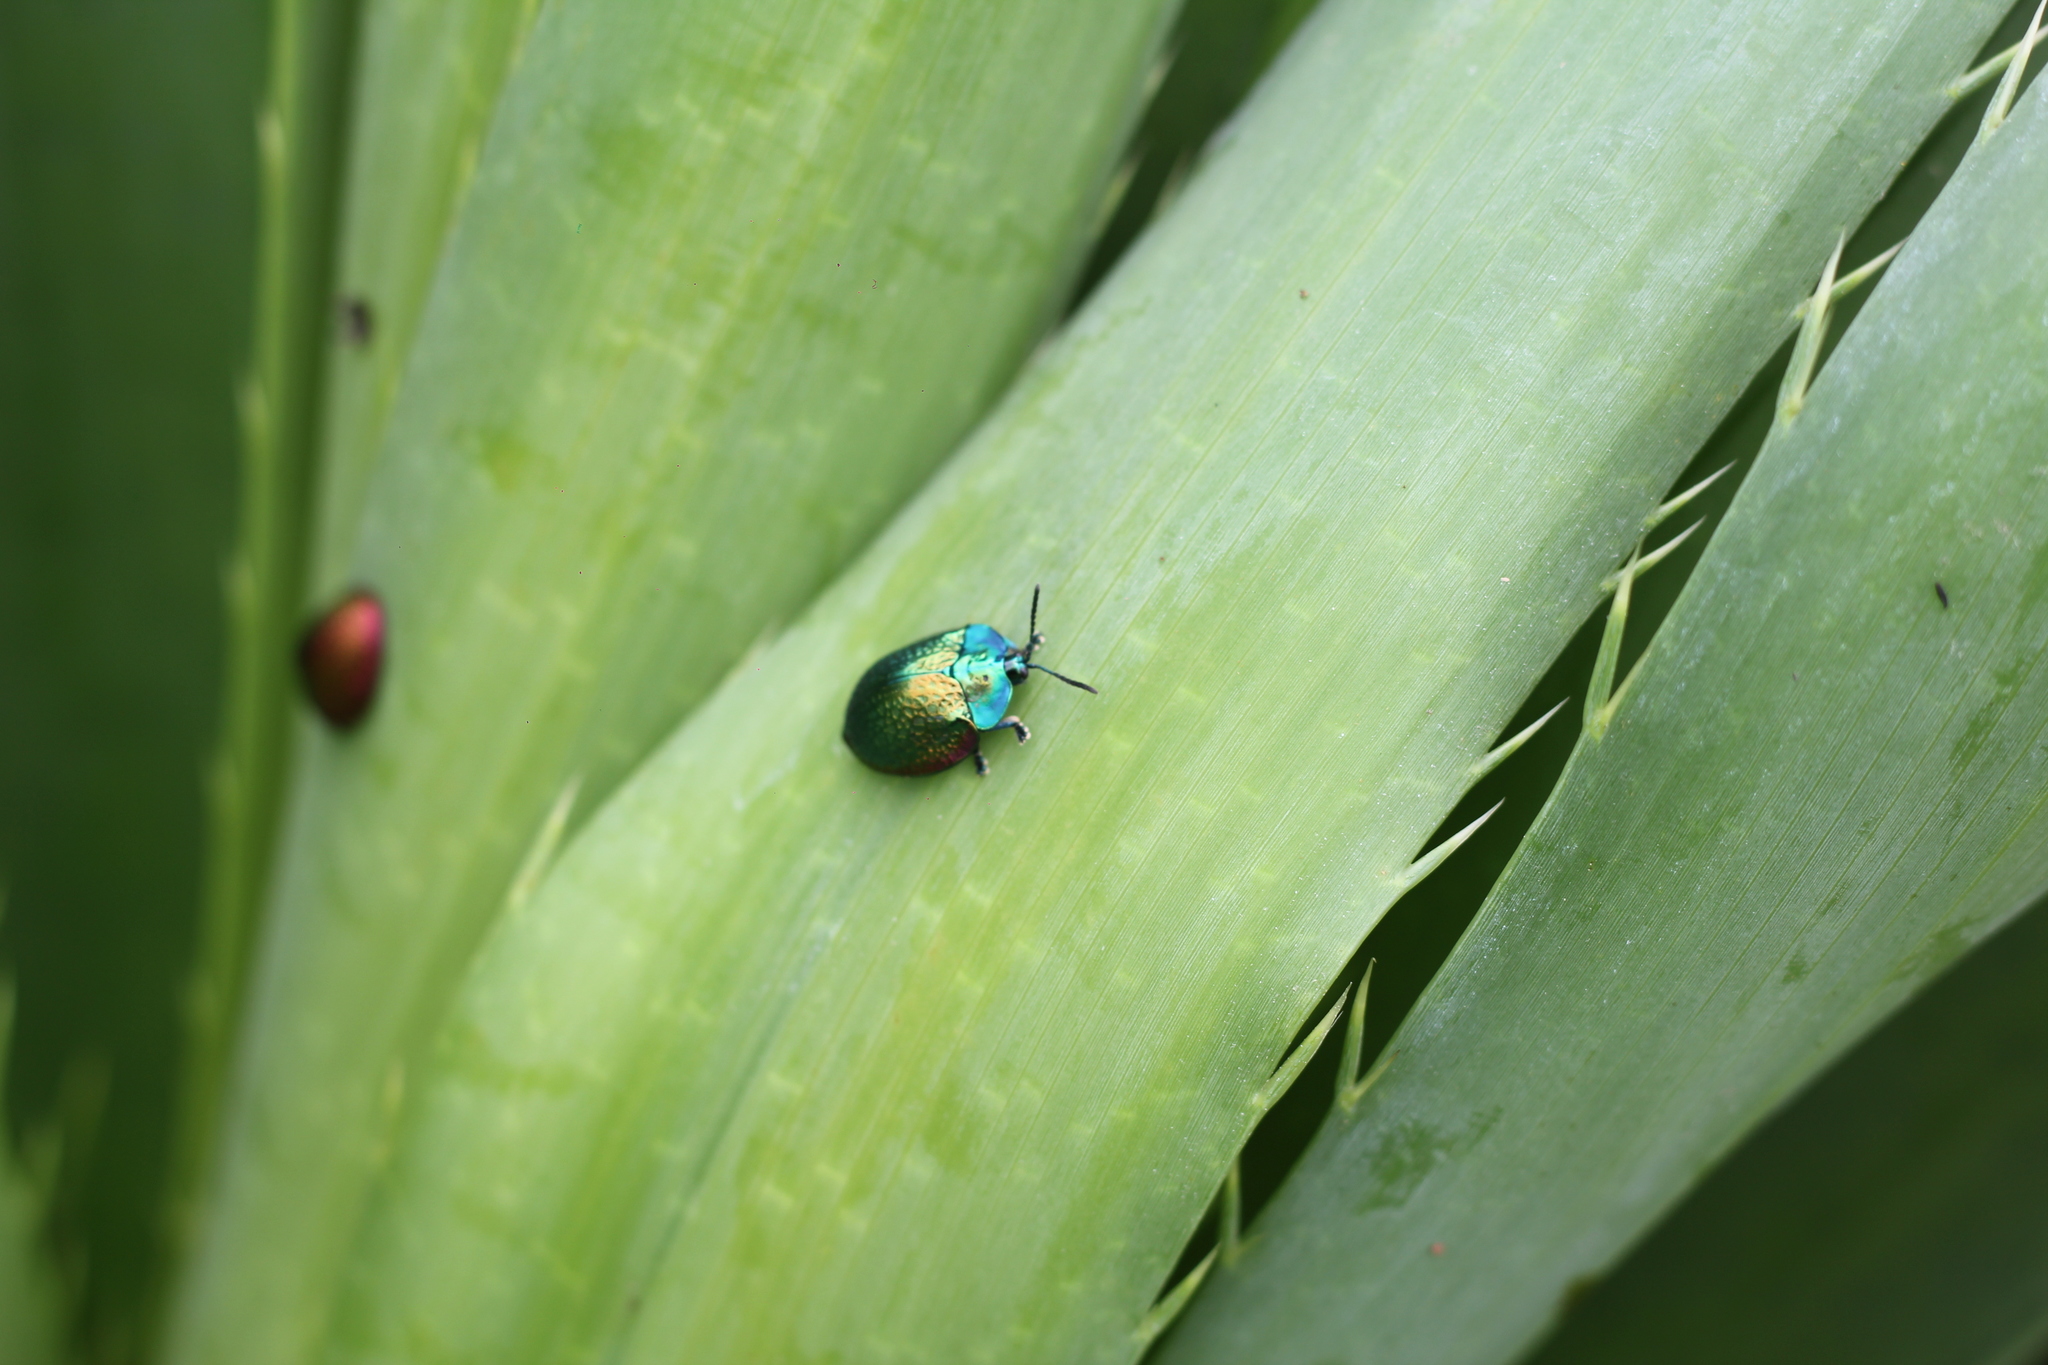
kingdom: Animalia
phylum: Arthropoda
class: Insecta
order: Coleoptera
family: Chrysomelidae
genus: Stolas
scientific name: Stolas festiva
